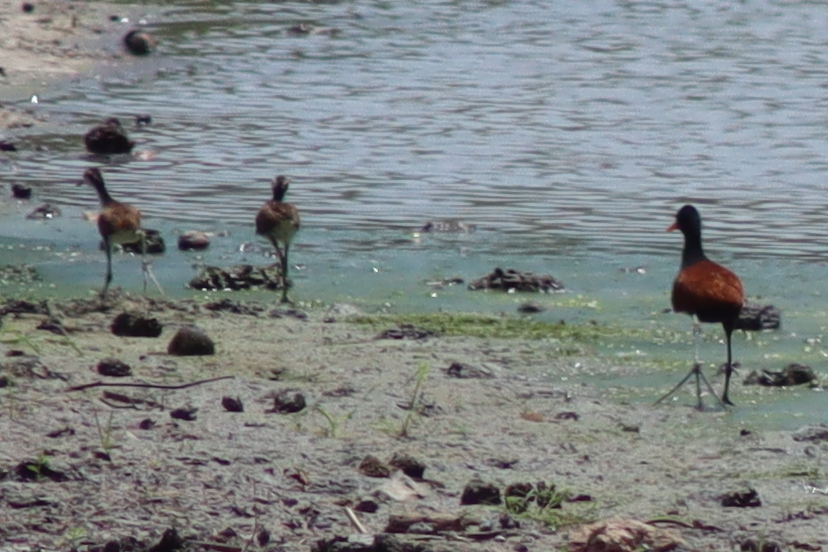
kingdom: Animalia
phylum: Chordata
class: Aves
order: Charadriiformes
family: Jacanidae
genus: Jacana
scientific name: Jacana jacana
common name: Wattled jacana
